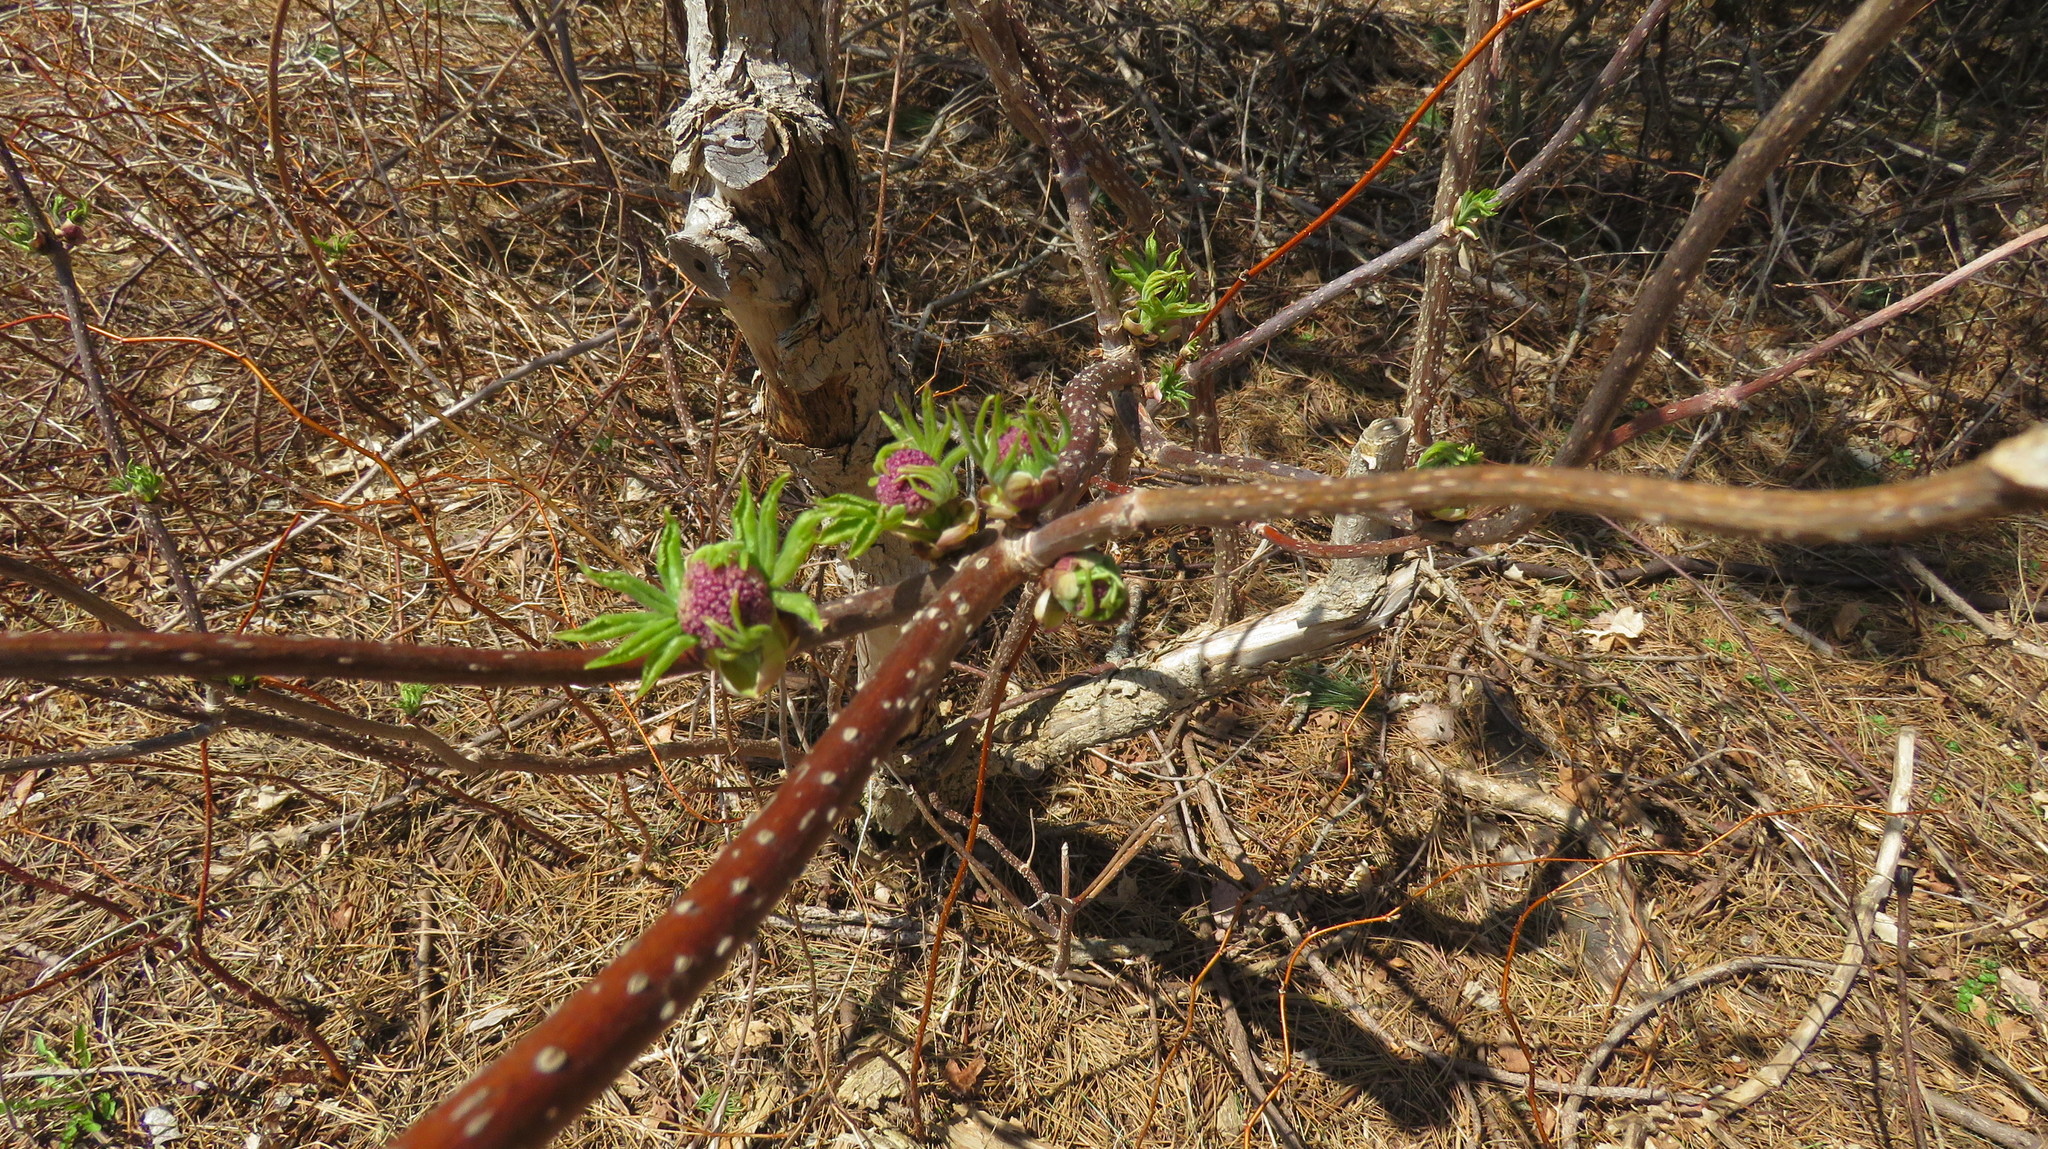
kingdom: Plantae
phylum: Tracheophyta
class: Magnoliopsida
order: Dipsacales
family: Viburnaceae
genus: Sambucus
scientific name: Sambucus racemosa
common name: Red-berried elder
